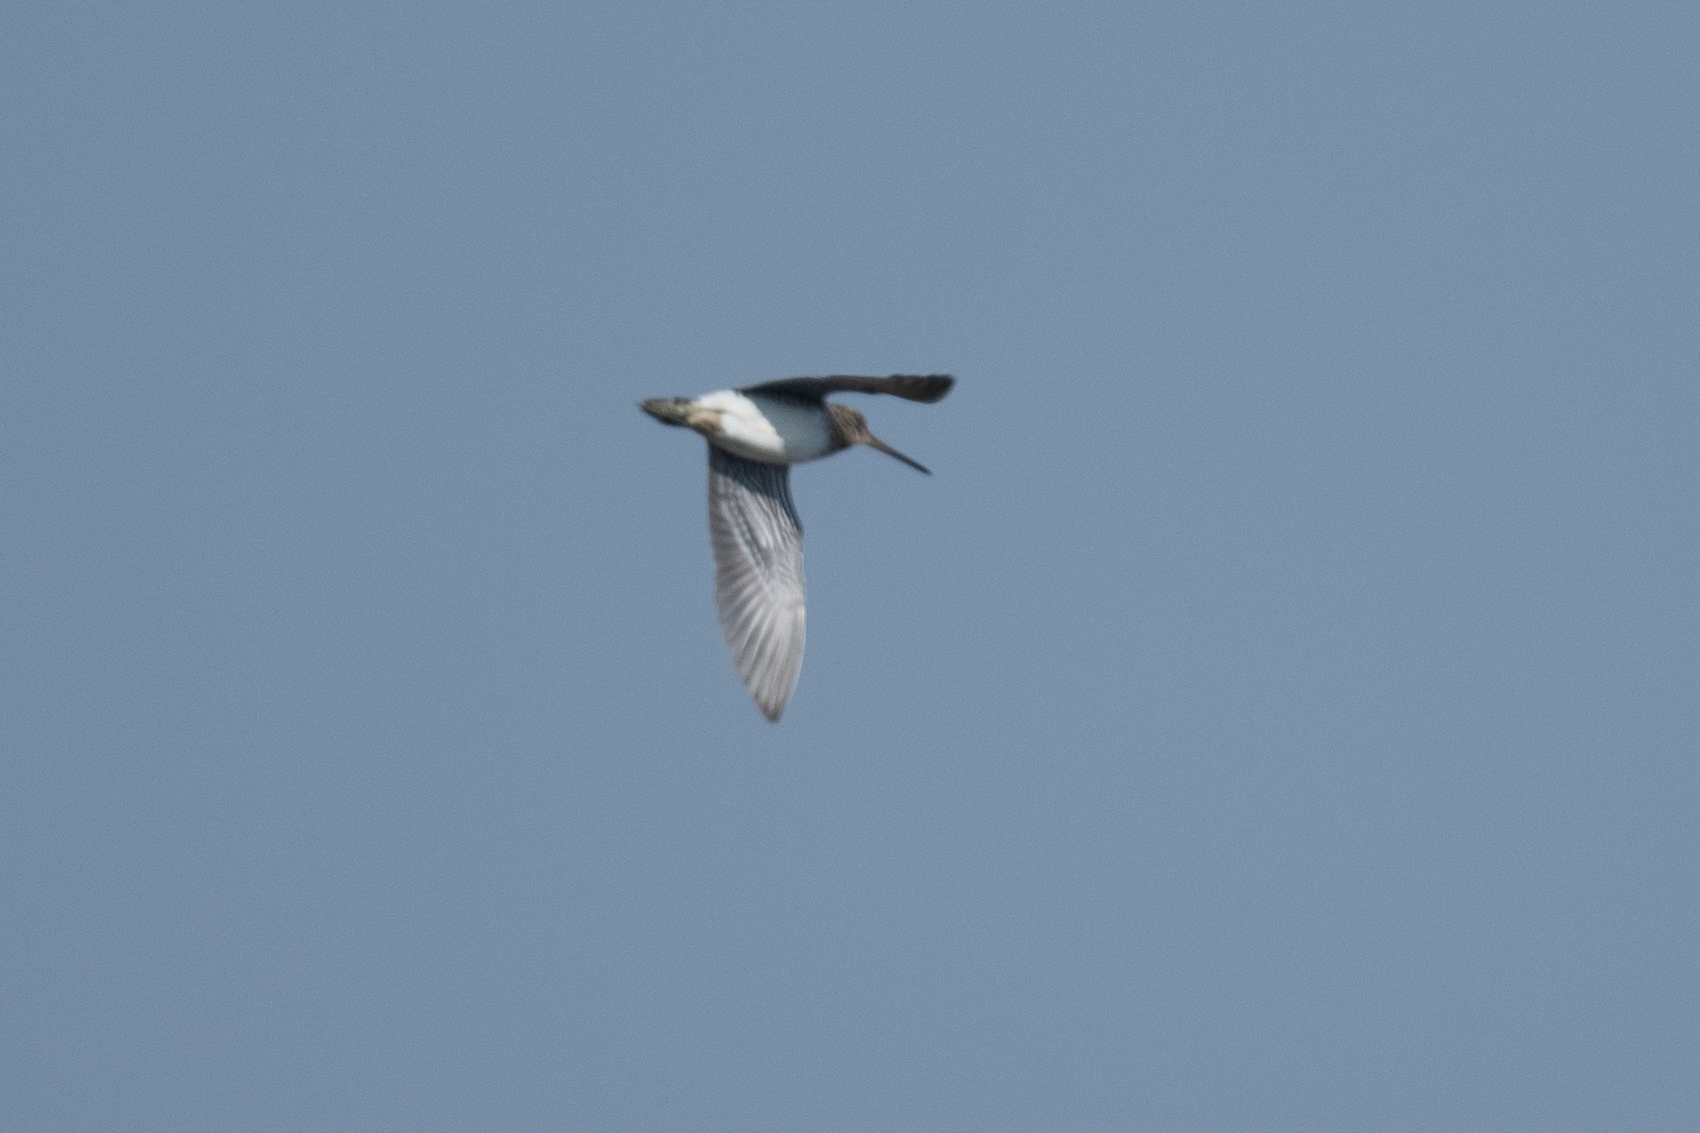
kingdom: Animalia
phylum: Chordata
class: Aves
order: Charadriiformes
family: Scolopacidae
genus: Gallinago
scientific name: Gallinago delicata
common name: Wilson's snipe
